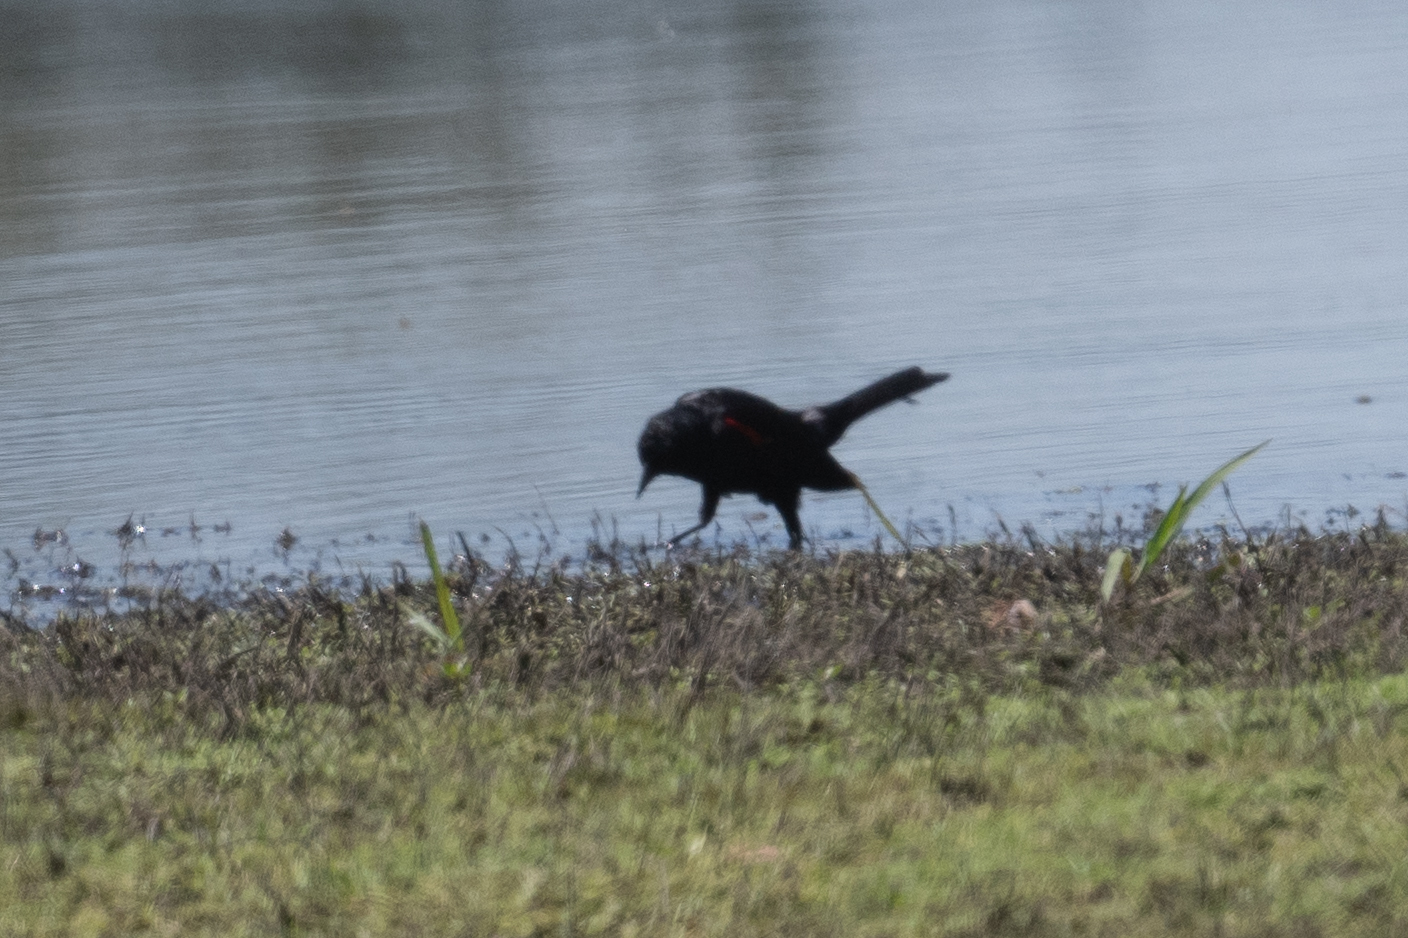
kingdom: Animalia
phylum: Chordata
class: Aves
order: Passeriformes
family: Icteridae
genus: Agelaius
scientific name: Agelaius phoeniceus
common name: Red-winged blackbird
